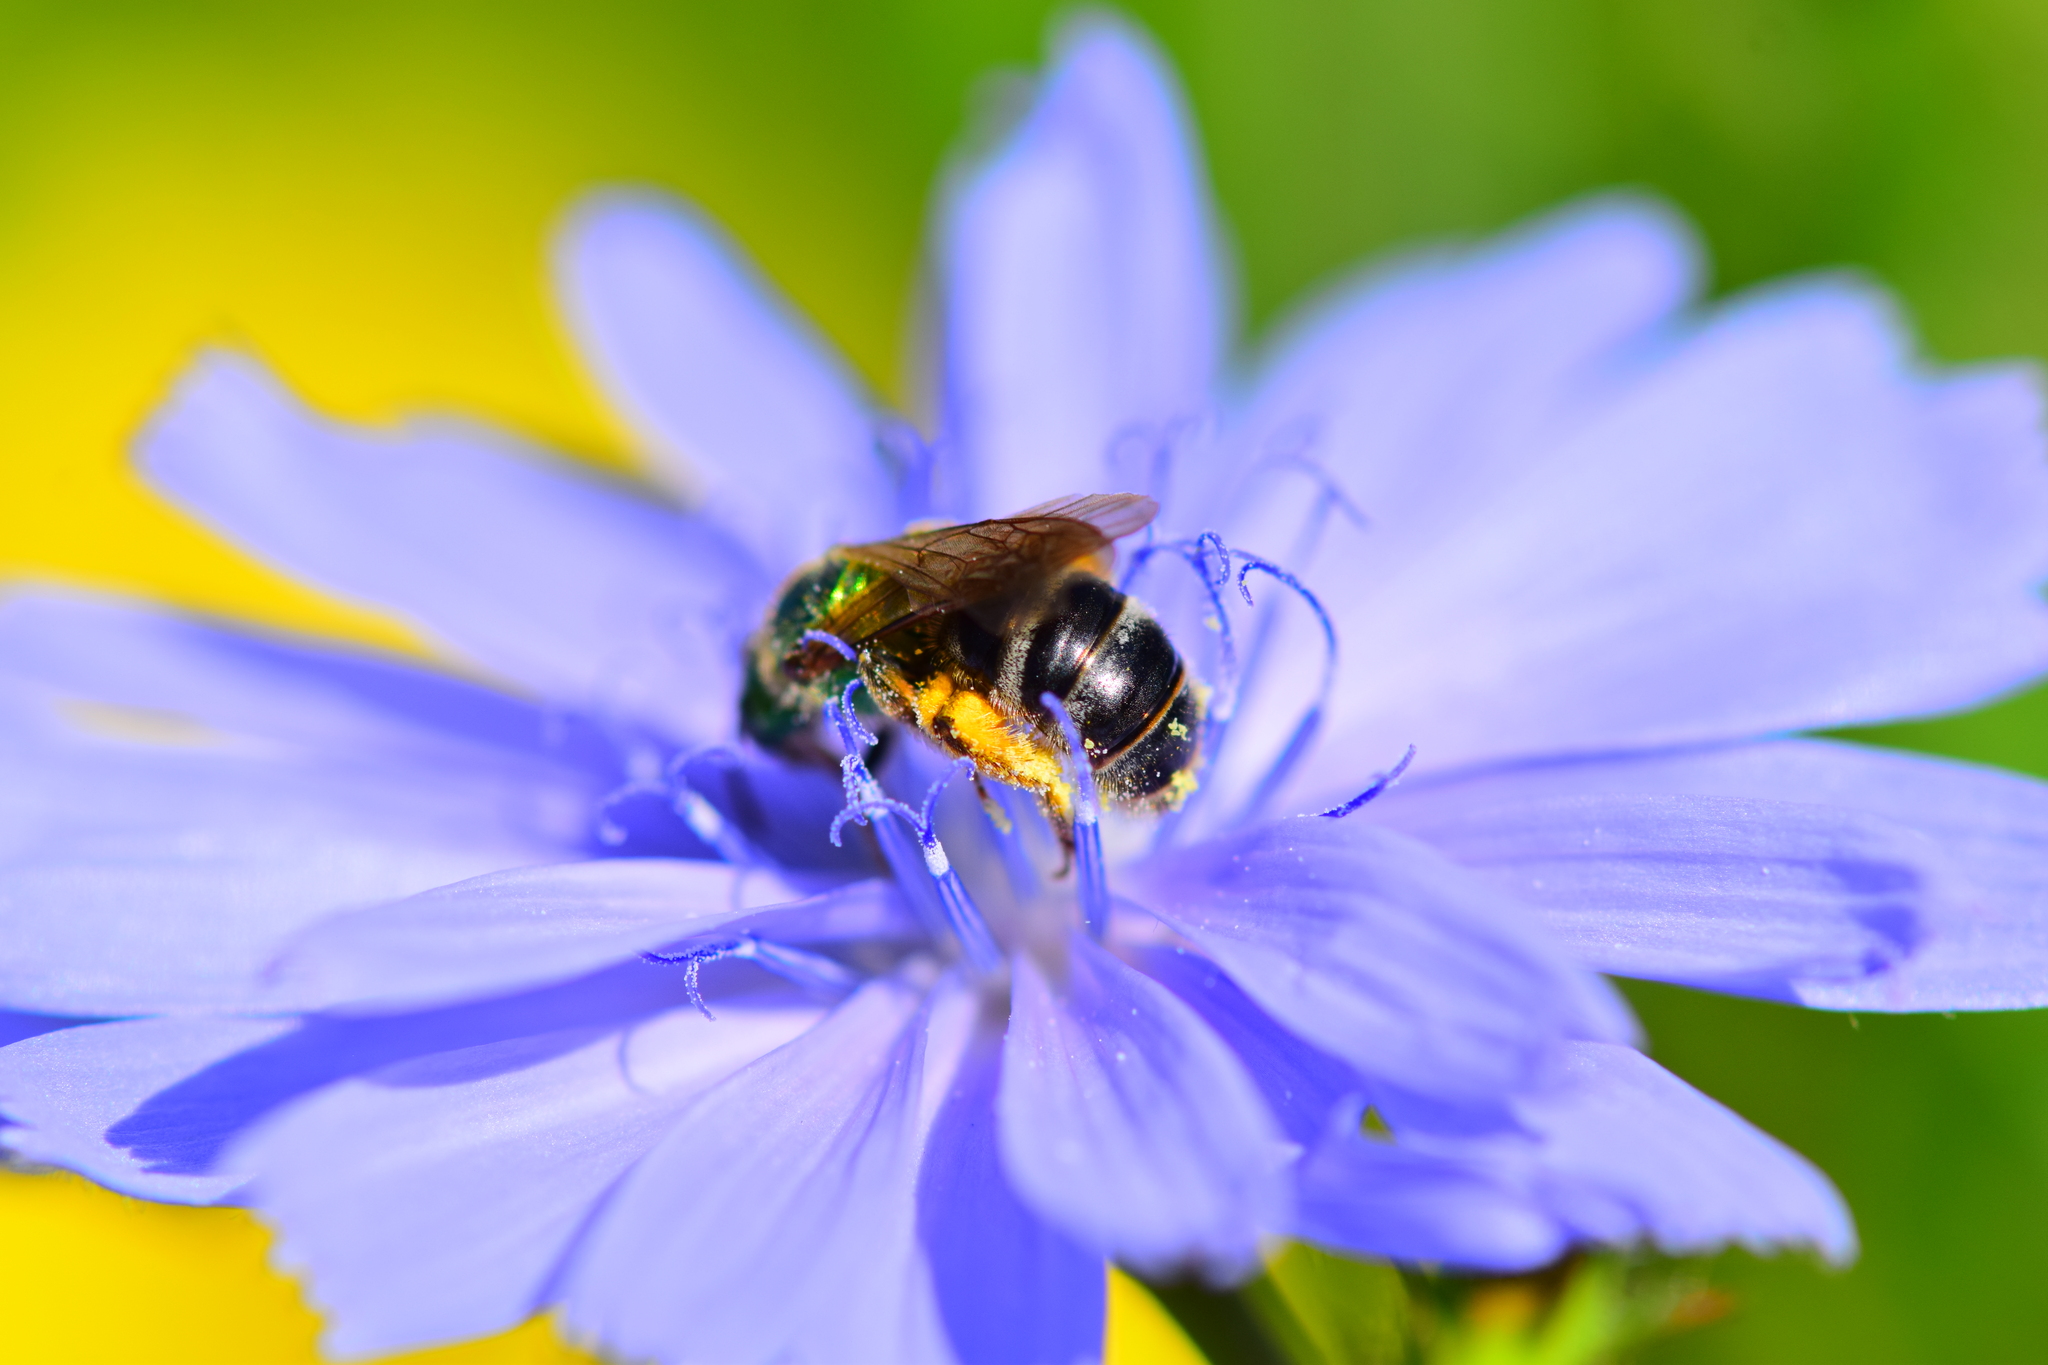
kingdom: Animalia
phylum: Arthropoda
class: Insecta
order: Hymenoptera
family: Halictidae
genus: Agapostemon
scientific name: Agapostemon virescens
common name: Bicolored striped sweat bee
